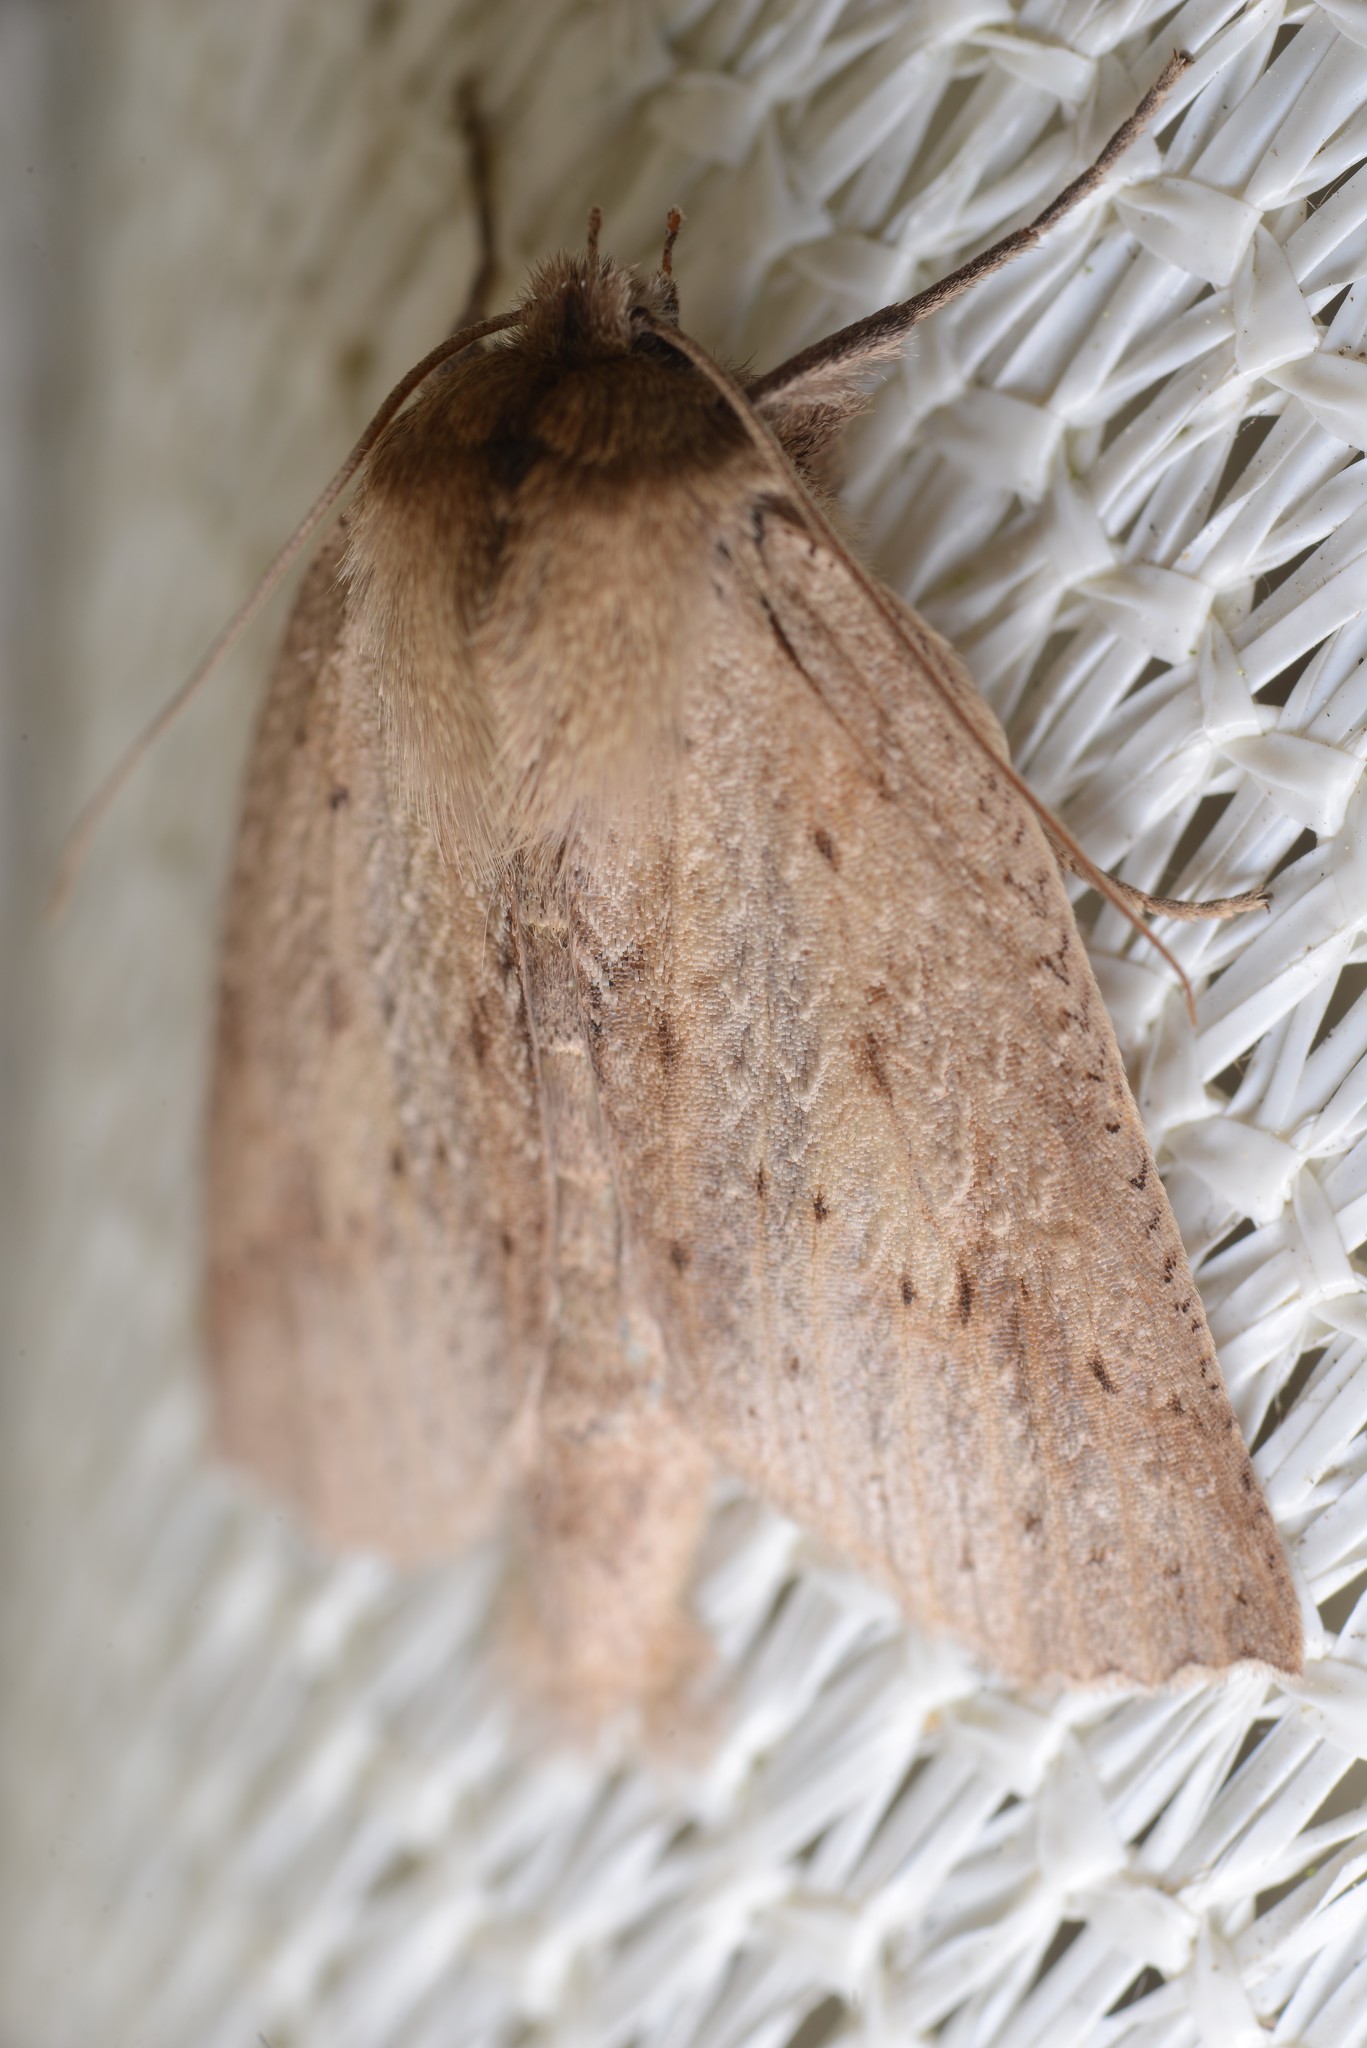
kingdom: Animalia
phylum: Arthropoda
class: Insecta
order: Lepidoptera
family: Geometridae
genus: Declana
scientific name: Declana leptomera
